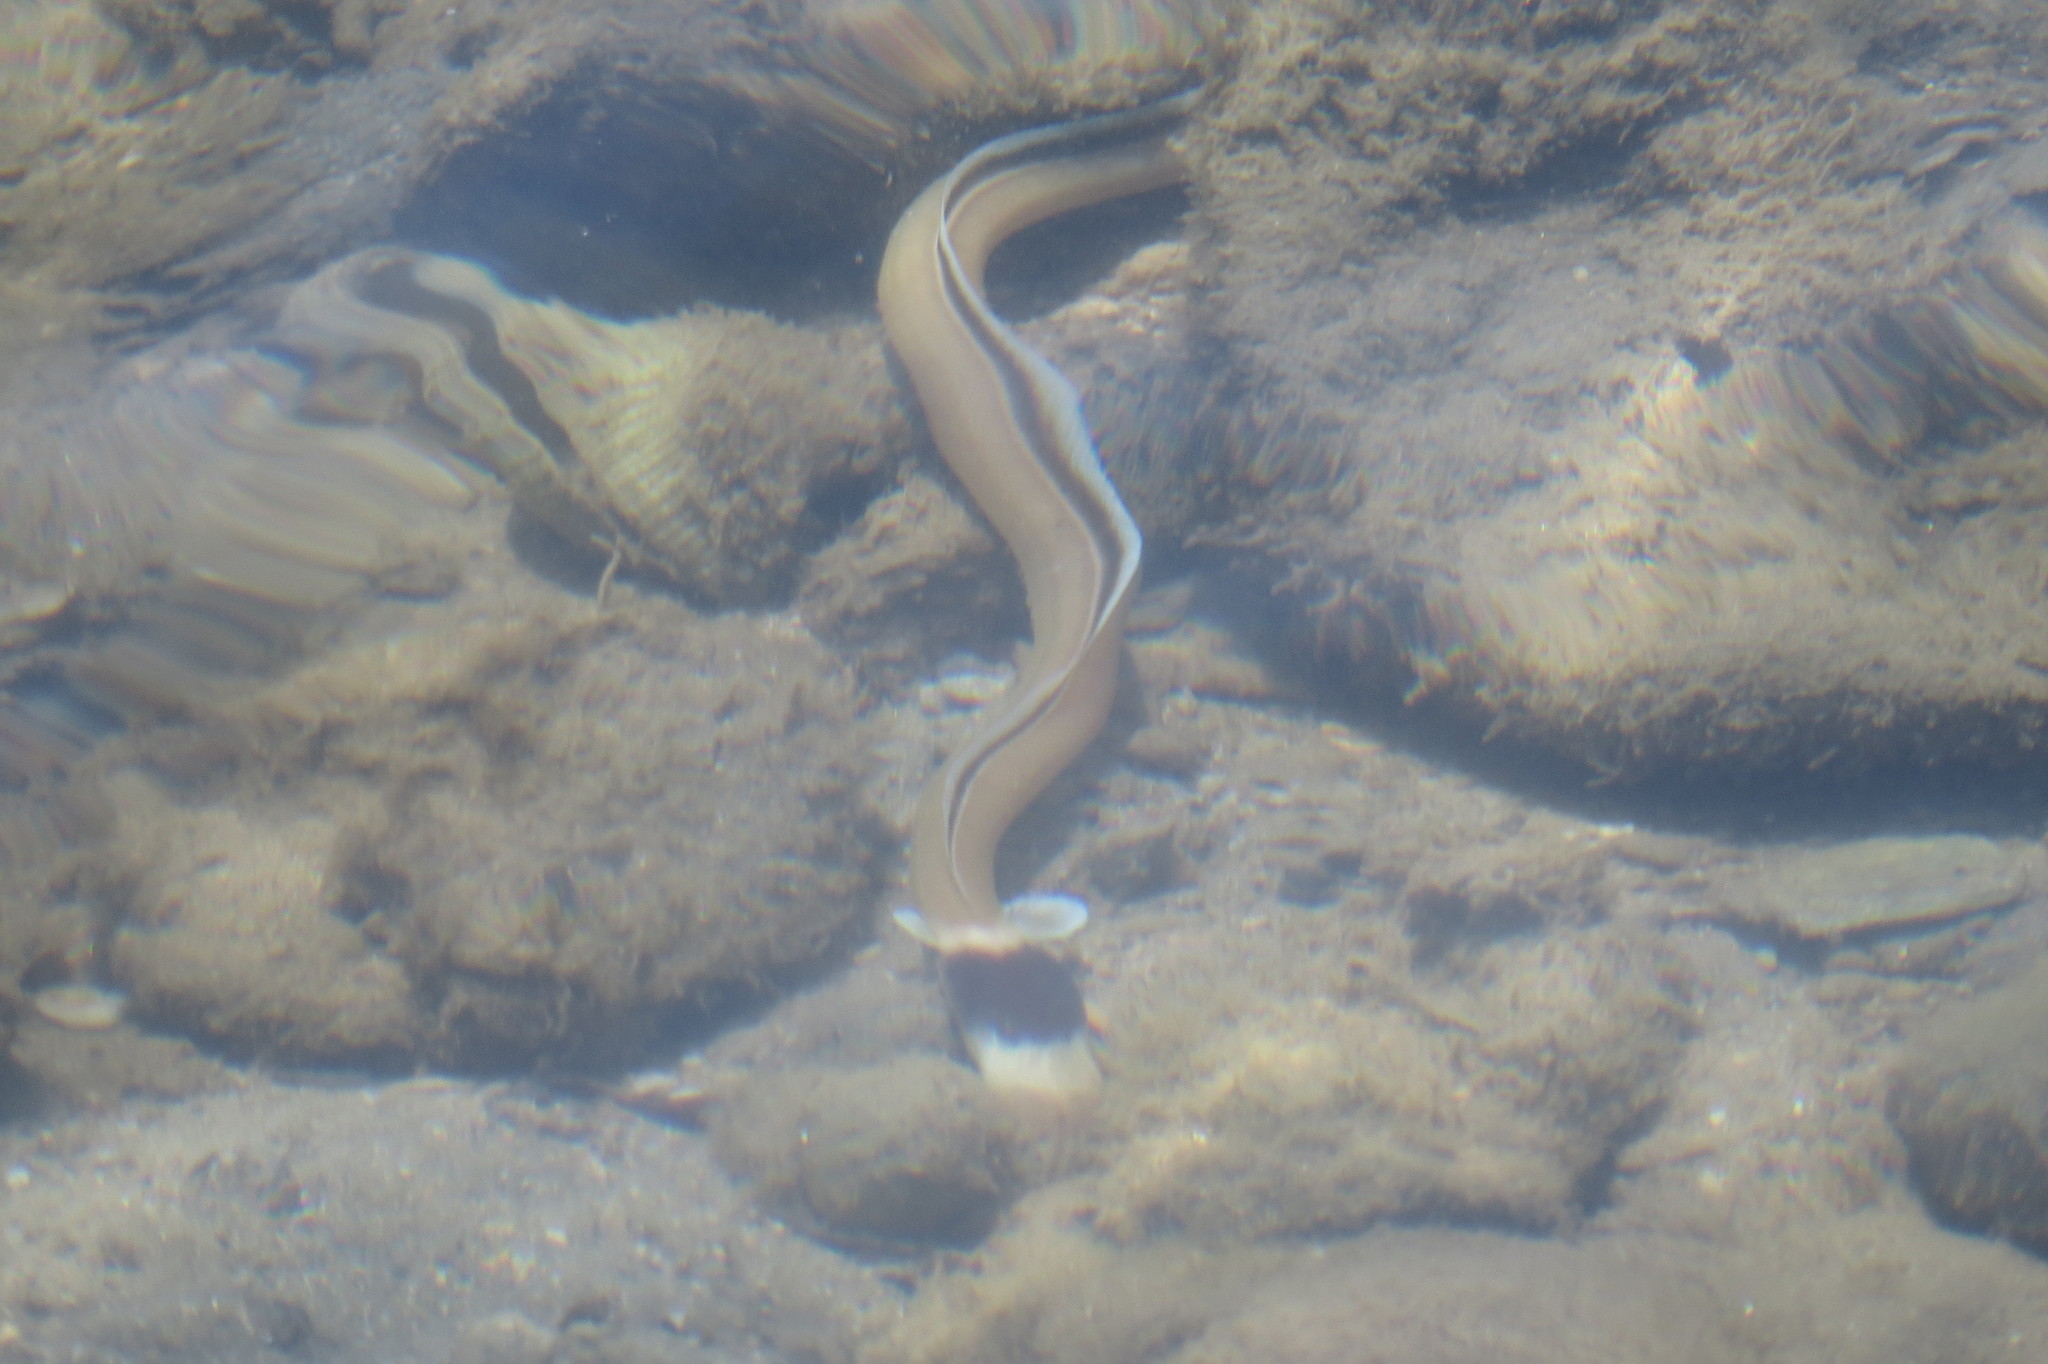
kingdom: Animalia
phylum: Chordata
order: Anguilliformes
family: Ophichthidae
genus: Ophichthus
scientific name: Ophichthus cephalozona
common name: Dark-shouldered snake eel
